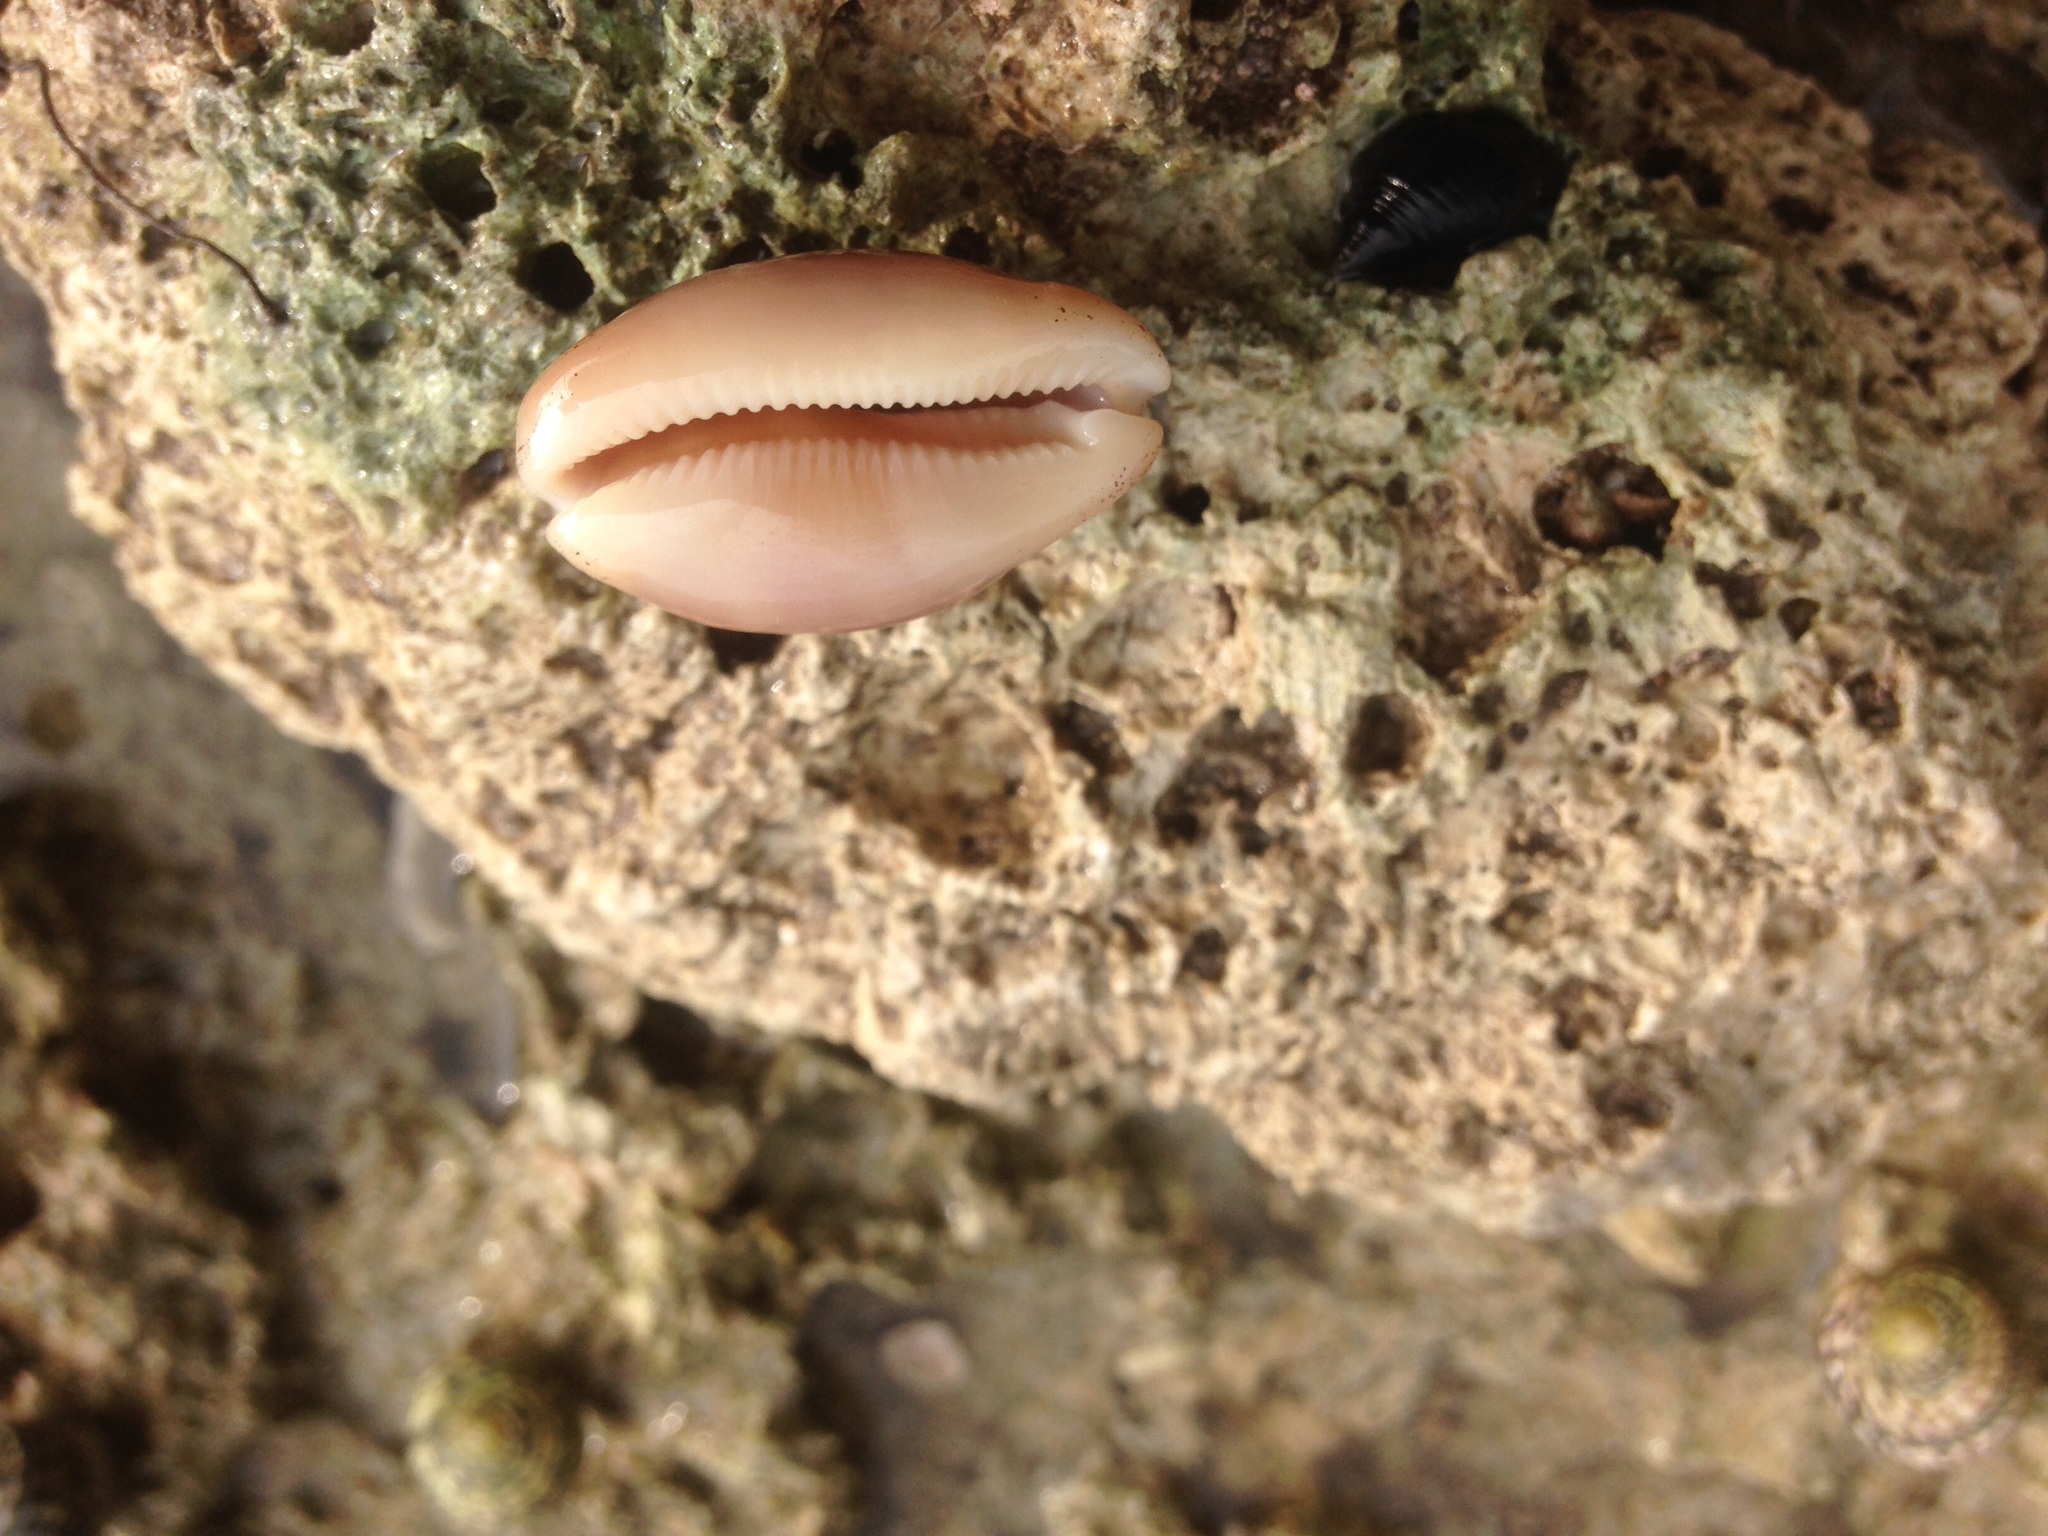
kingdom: Animalia
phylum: Mollusca
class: Gastropoda
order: Littorinimorpha
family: Cypraeidae
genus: Luria
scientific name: Luria cinerea
